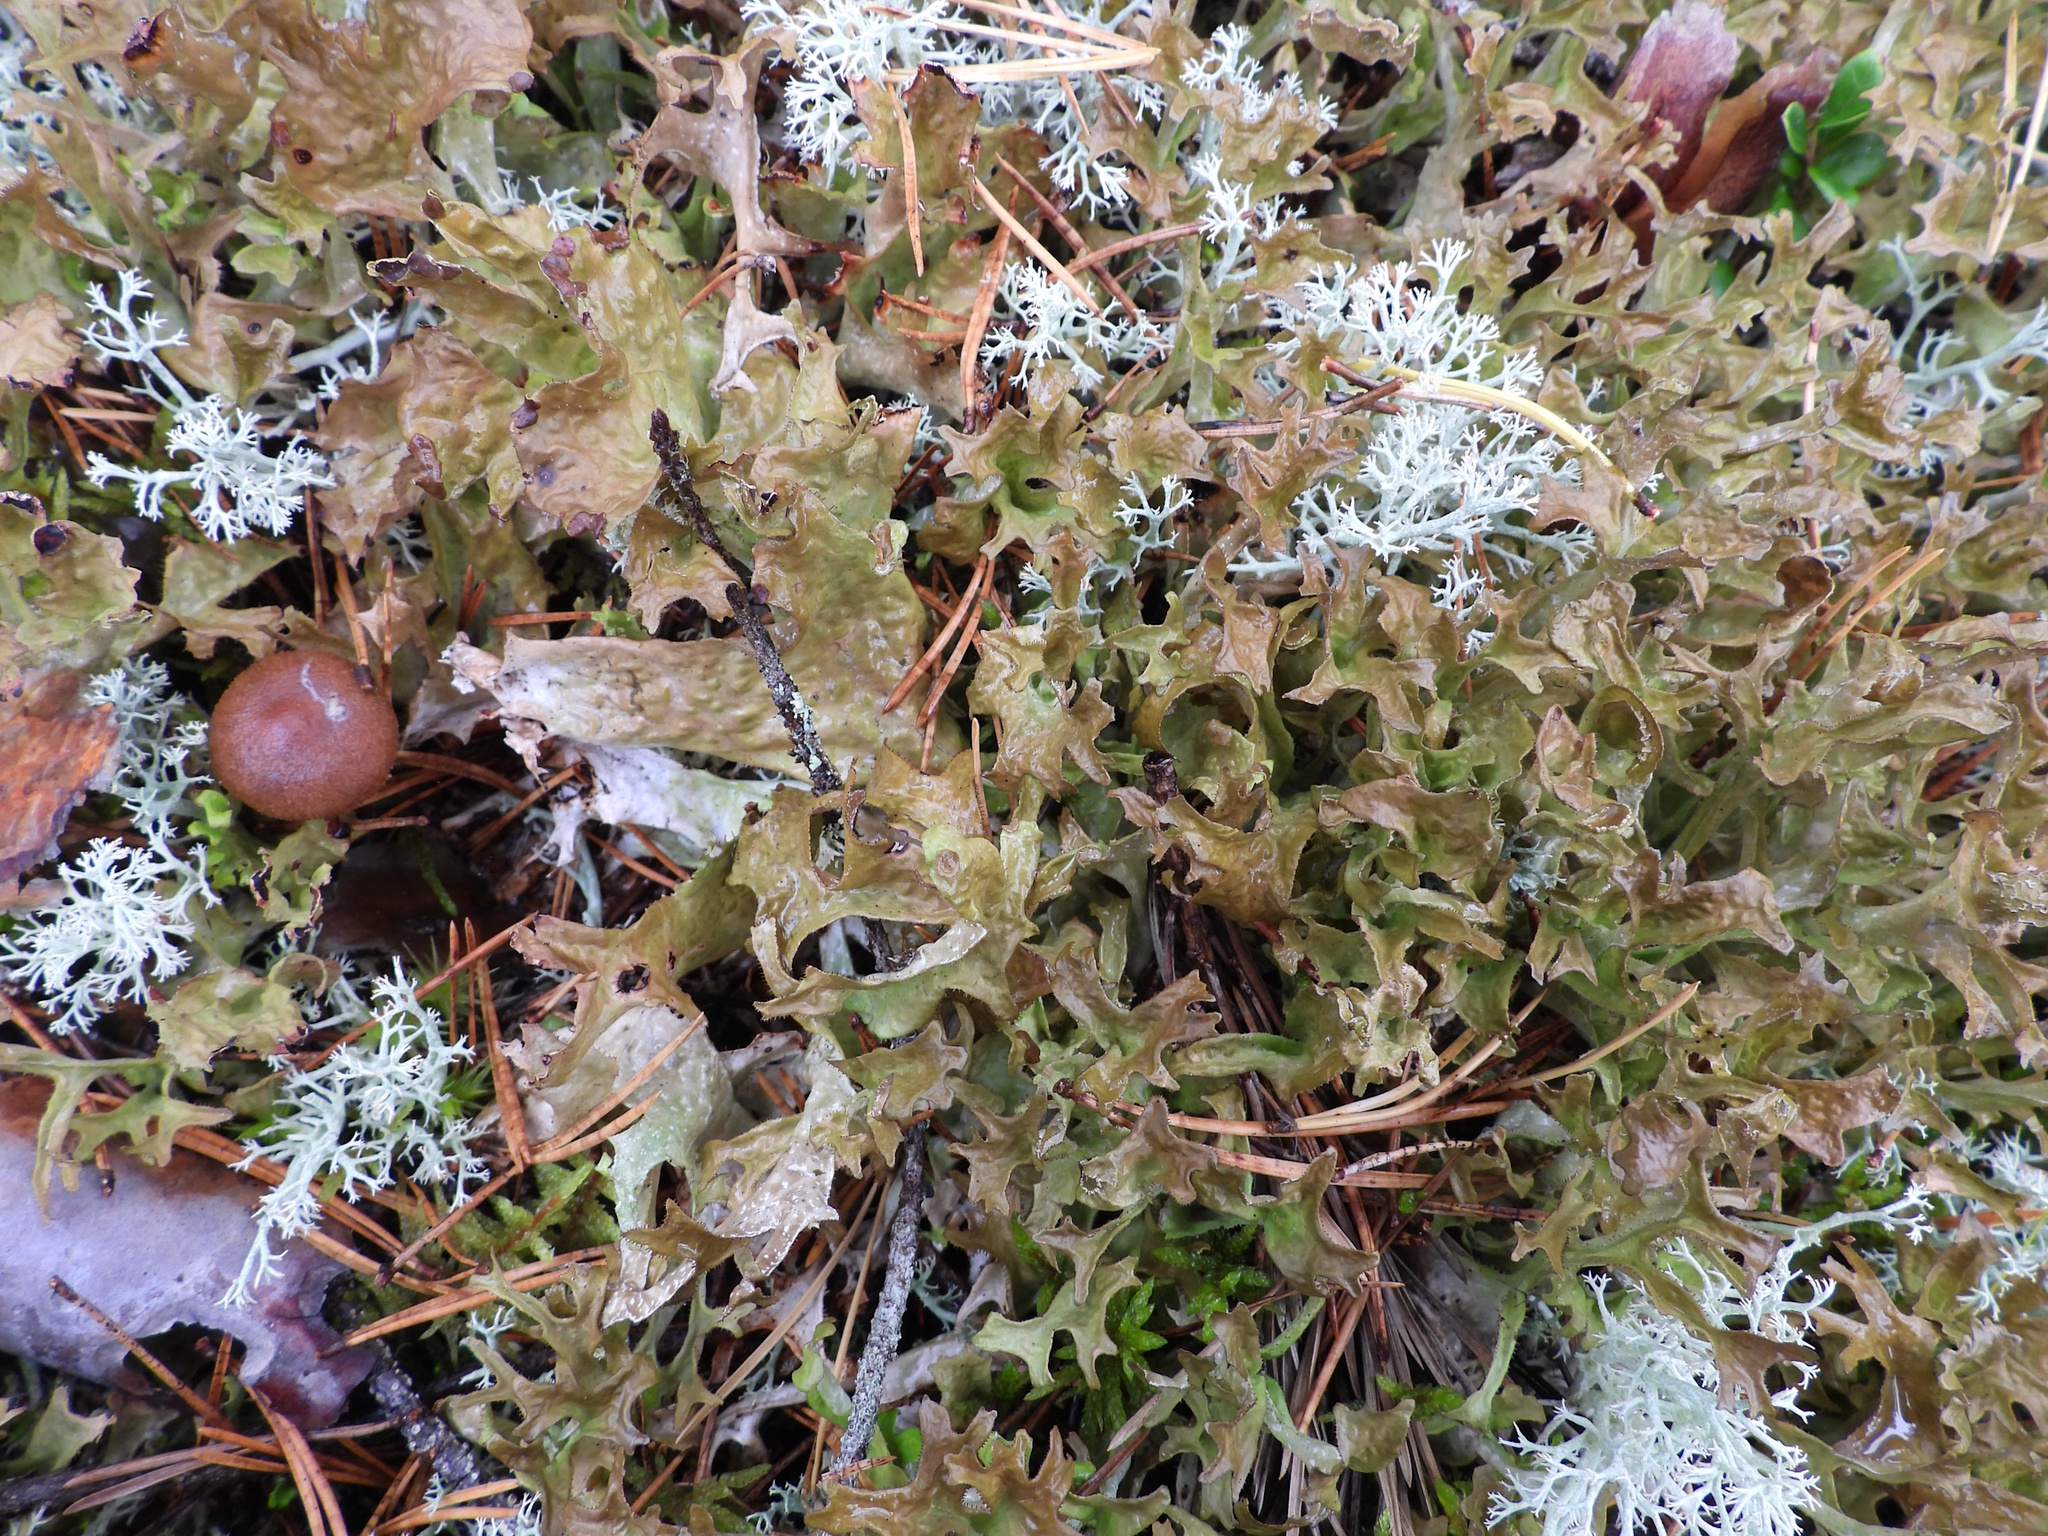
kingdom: Fungi
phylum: Ascomycota
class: Lecanoromycetes
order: Lecanorales
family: Parmeliaceae
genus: Cetraria
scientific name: Cetraria islandica
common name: Iceland lichen
